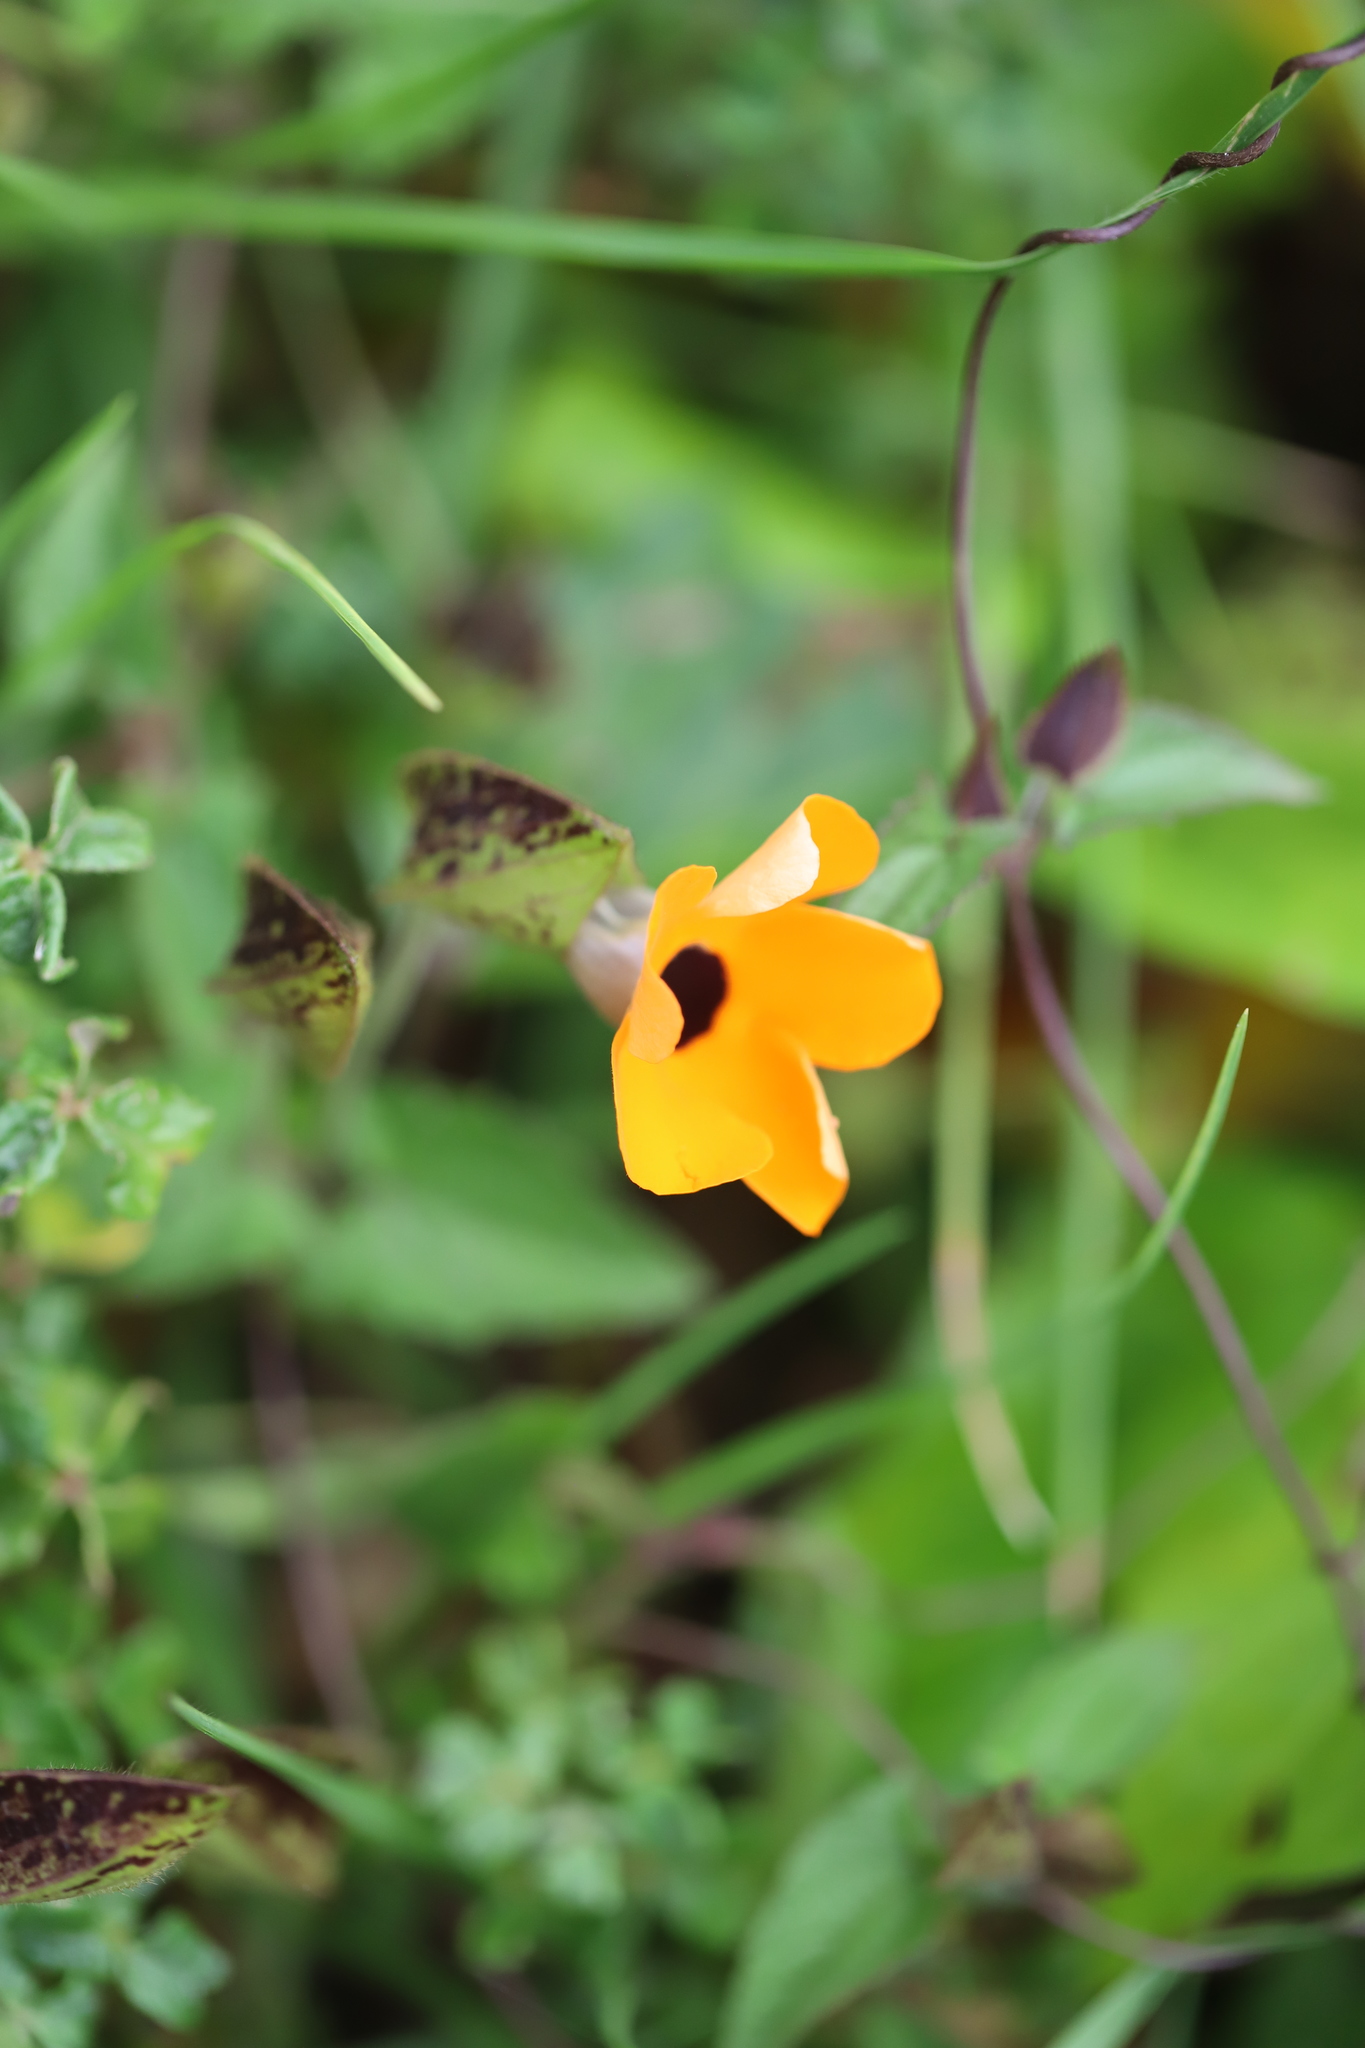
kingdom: Plantae
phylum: Tracheophyta
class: Magnoliopsida
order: Lamiales
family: Acanthaceae
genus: Thunbergia
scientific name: Thunbergia alata
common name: Blackeyed susan vine
